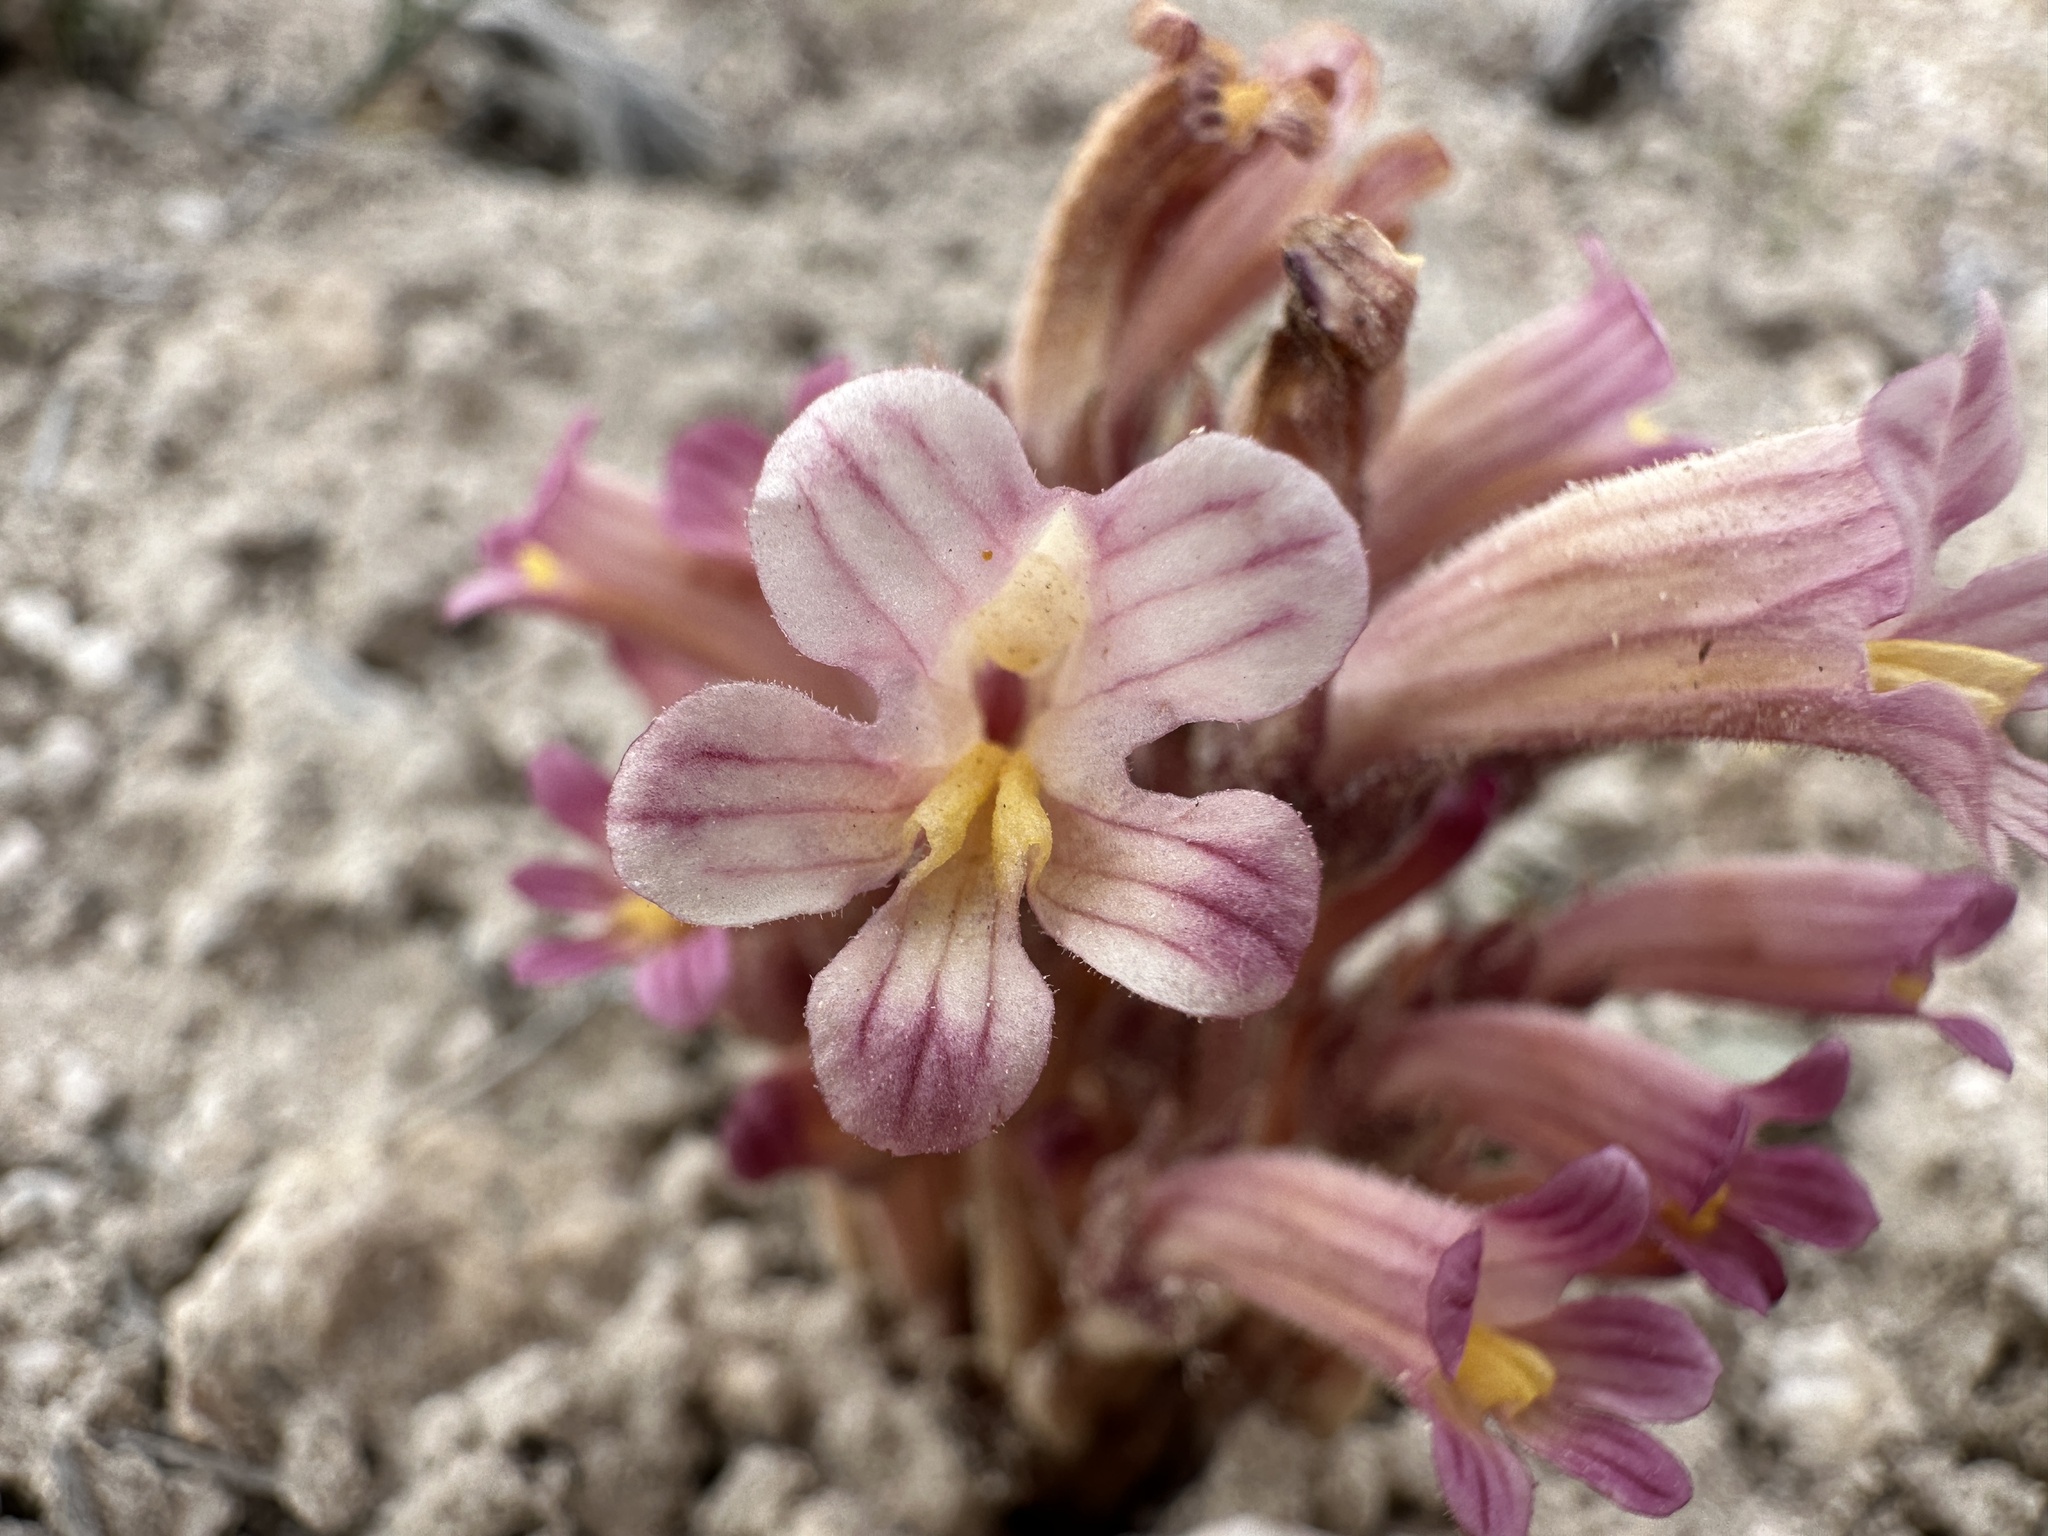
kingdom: Plantae
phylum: Tracheophyta
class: Magnoliopsida
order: Lamiales
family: Orobanchaceae
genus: Aphyllon
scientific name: Aphyllon fasciculatum
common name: Clustered broomrape
